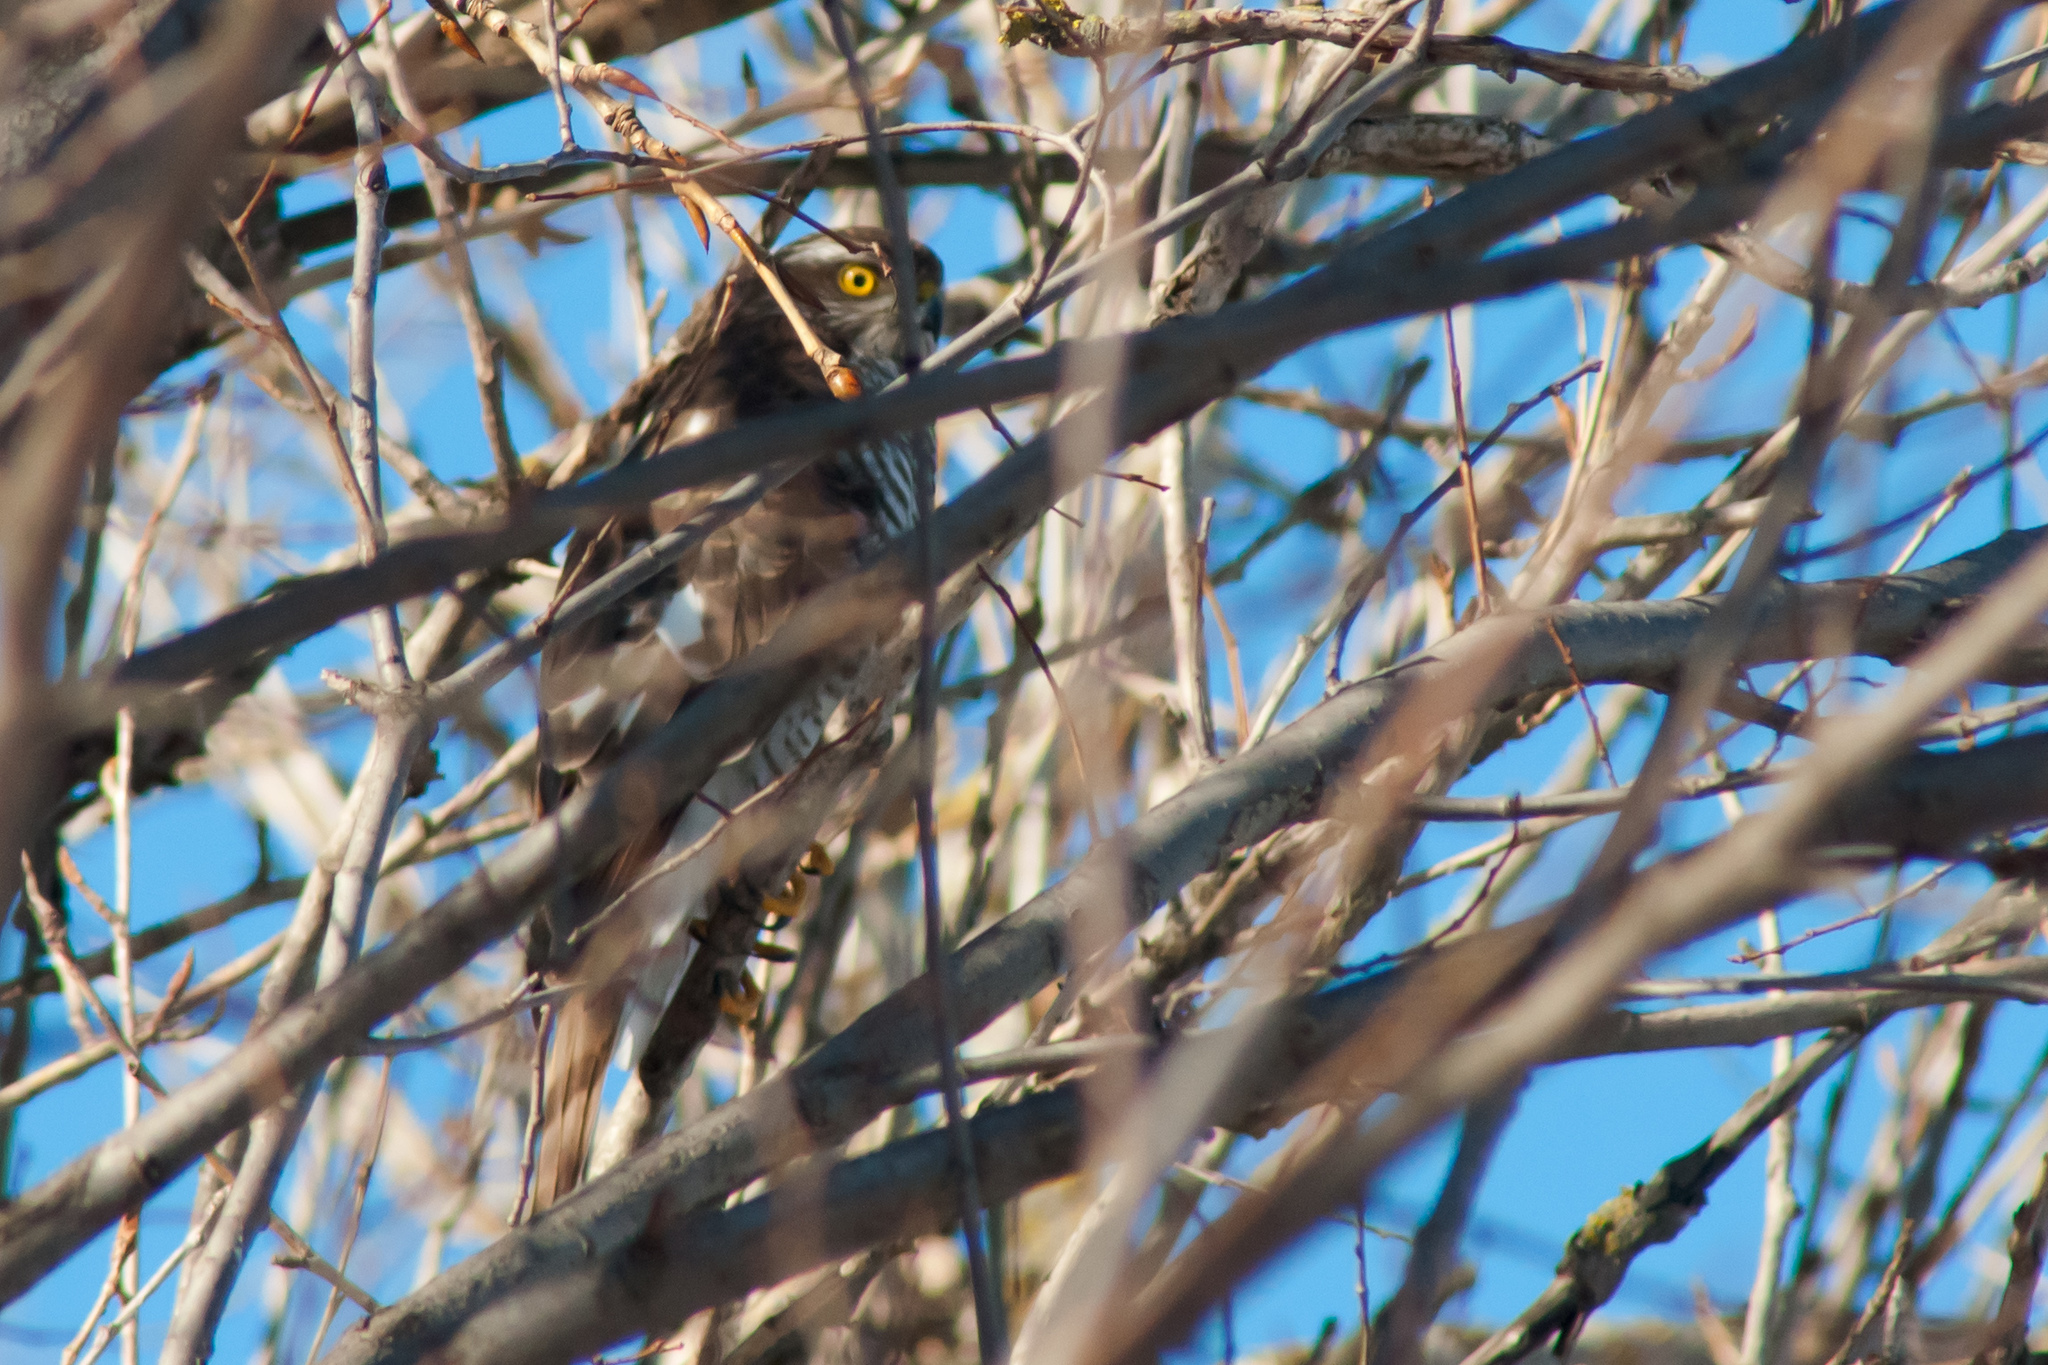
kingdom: Animalia
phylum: Chordata
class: Aves
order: Accipitriformes
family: Accipitridae
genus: Accipiter
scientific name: Accipiter nisus
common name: Eurasian sparrowhawk
